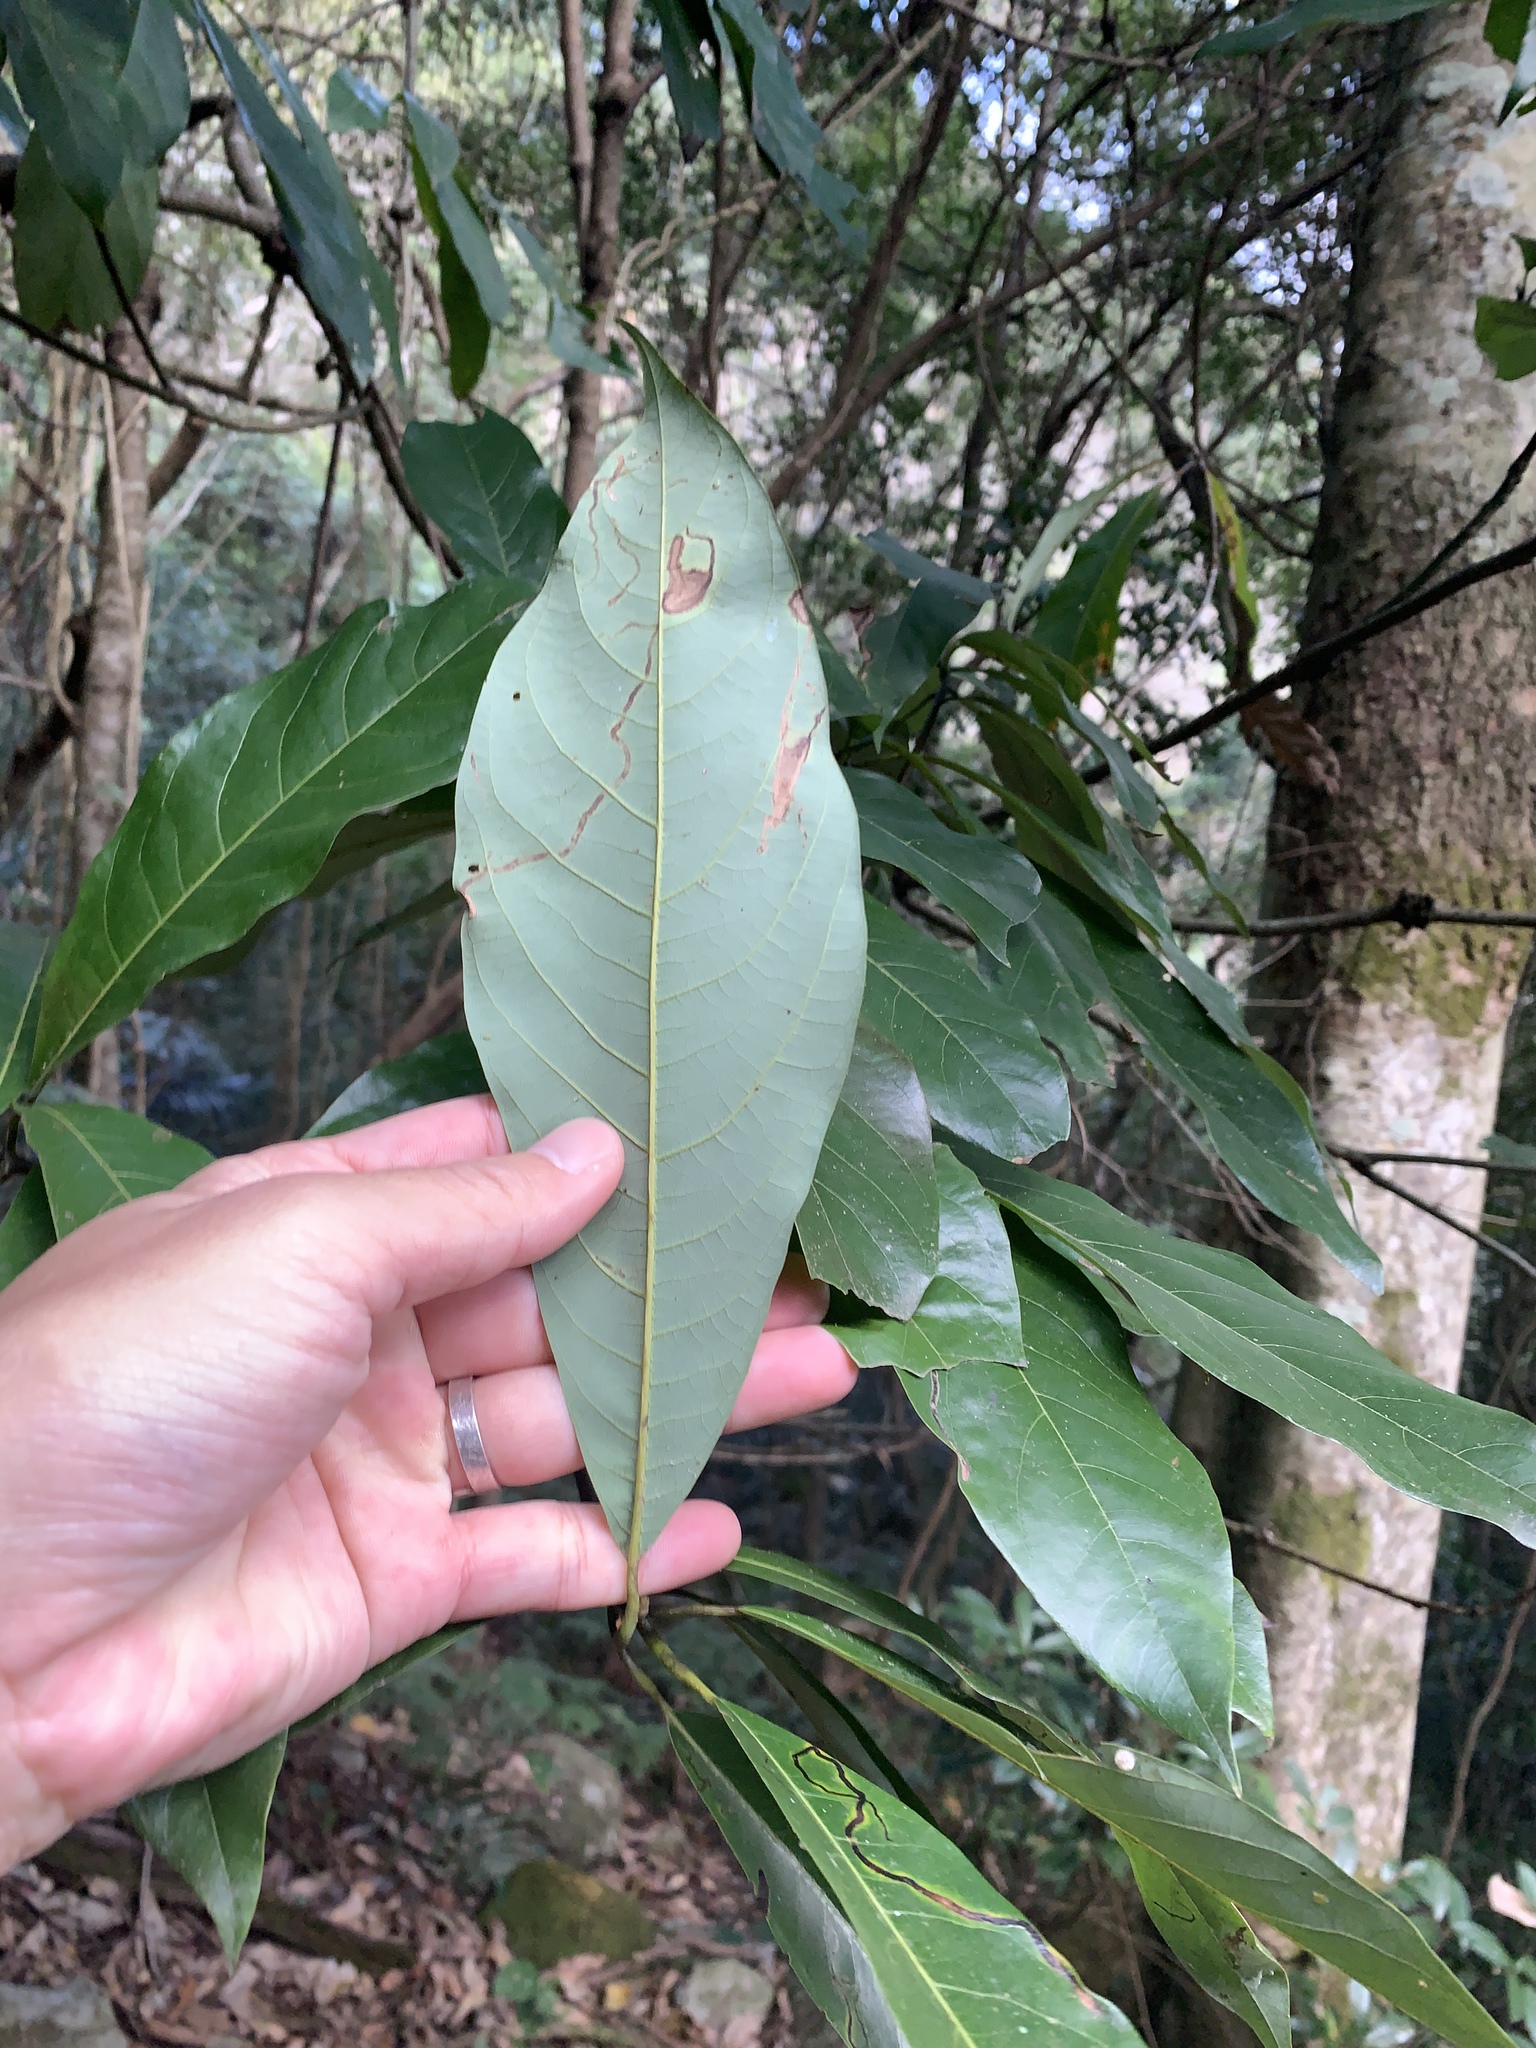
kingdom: Plantae
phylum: Tracheophyta
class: Magnoliopsida
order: Laurales
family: Lauraceae
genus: Lindera
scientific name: Lindera megaphylla
